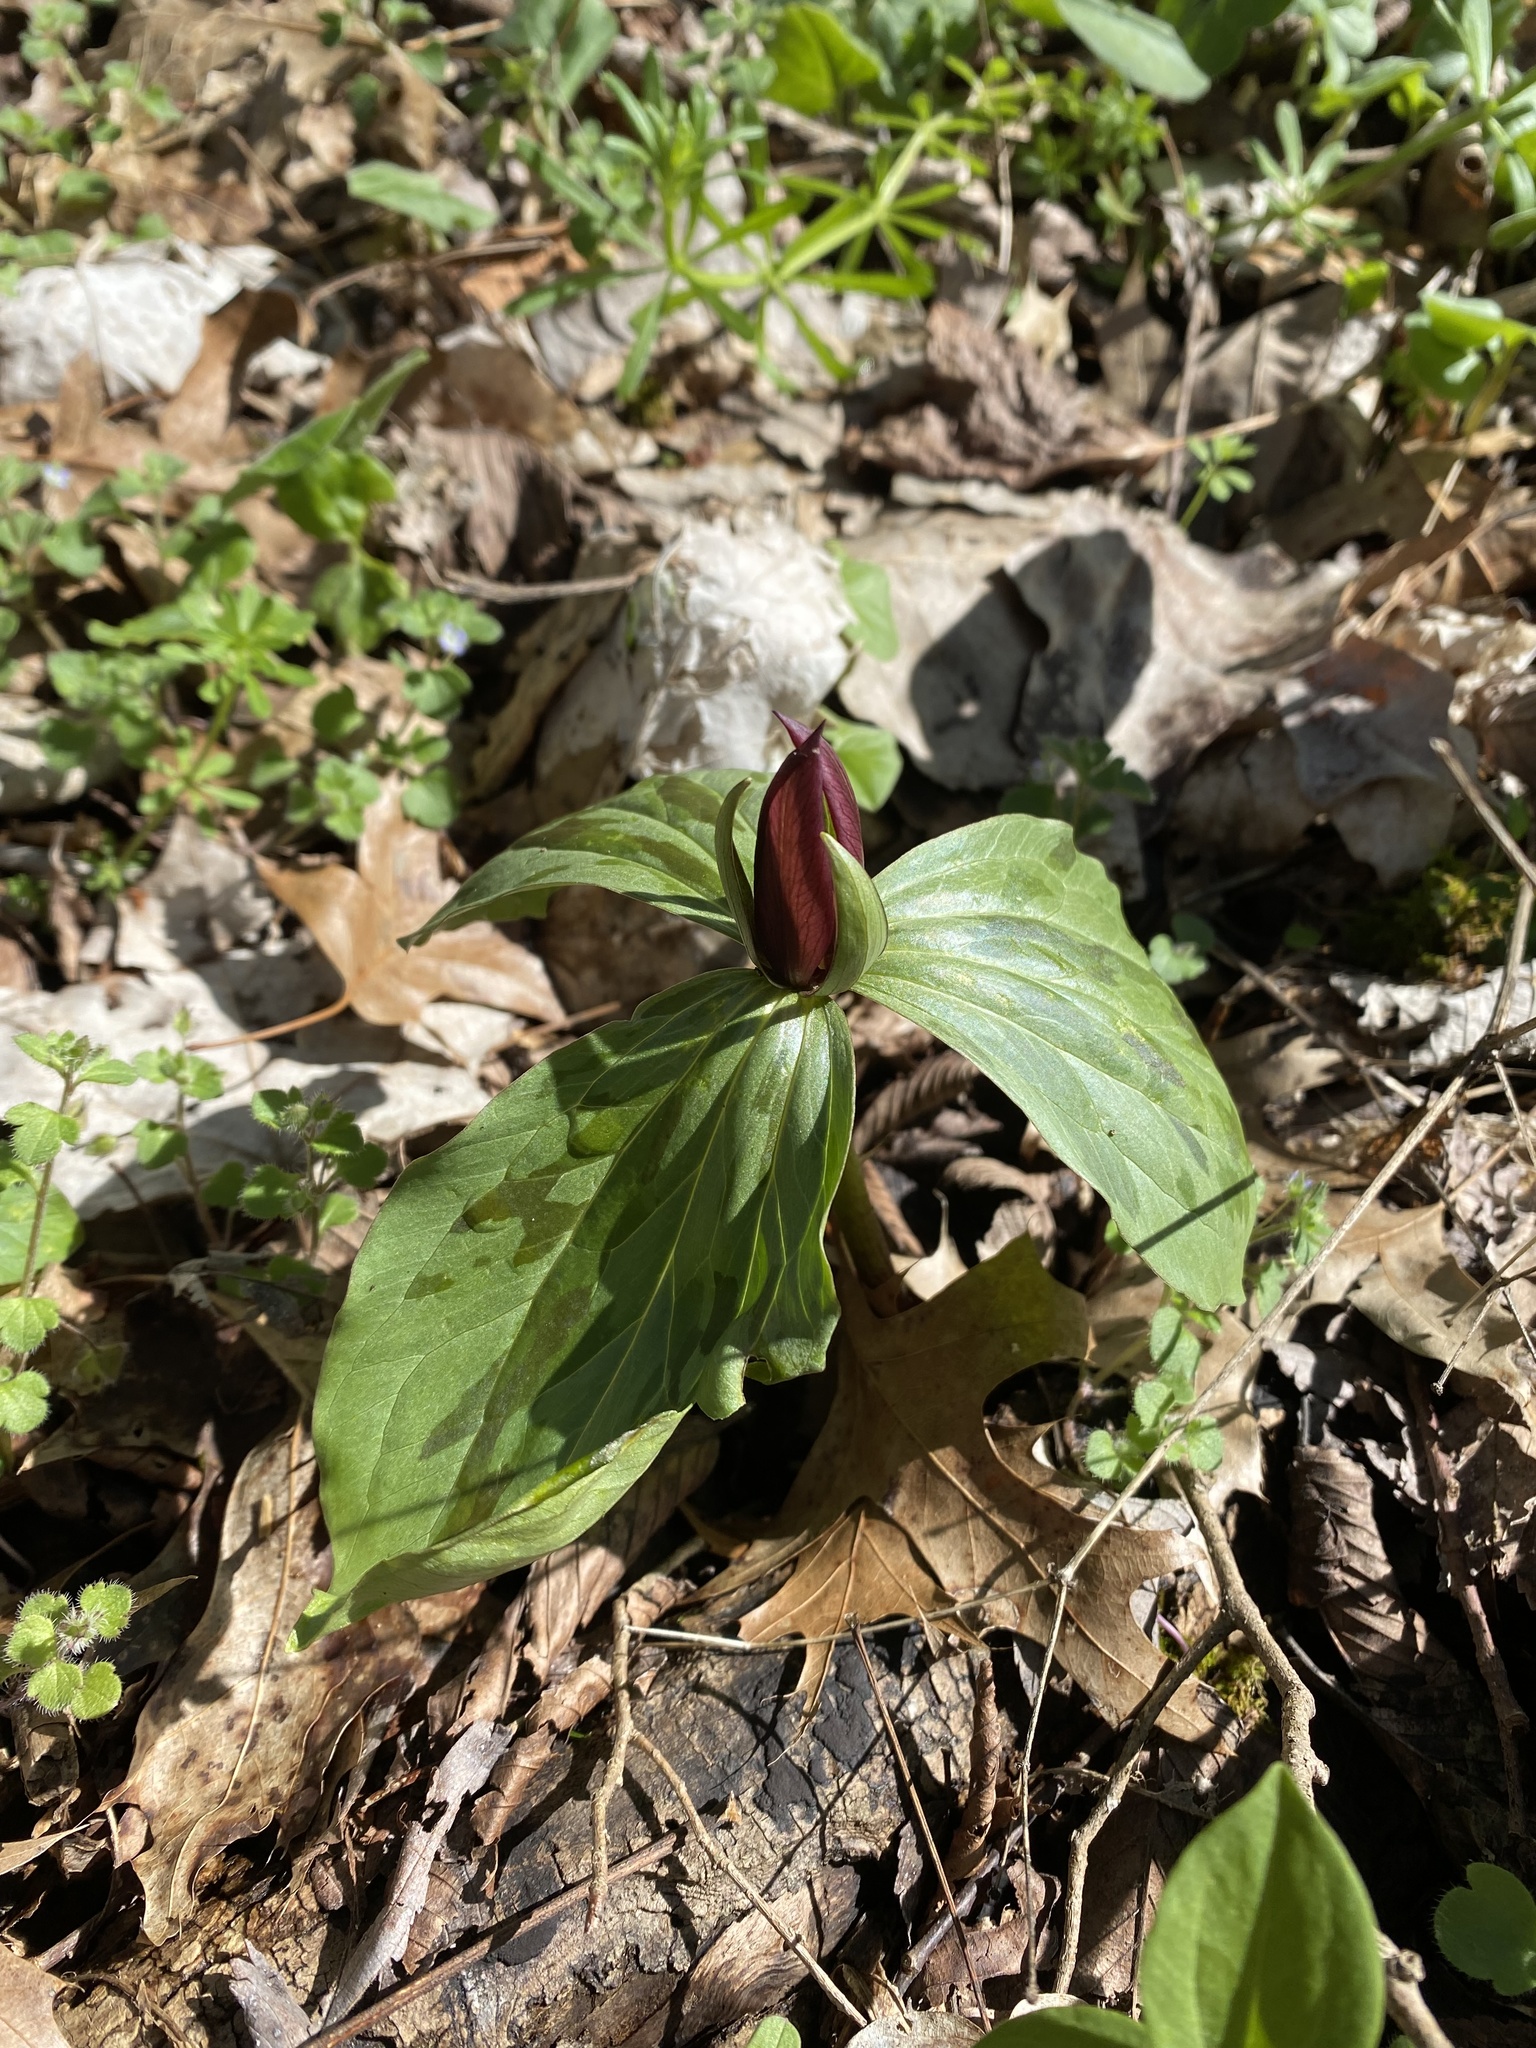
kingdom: Plantae
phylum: Tracheophyta
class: Liliopsida
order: Liliales
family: Melanthiaceae
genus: Trillium
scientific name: Trillium sessile
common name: Sessile trillium
